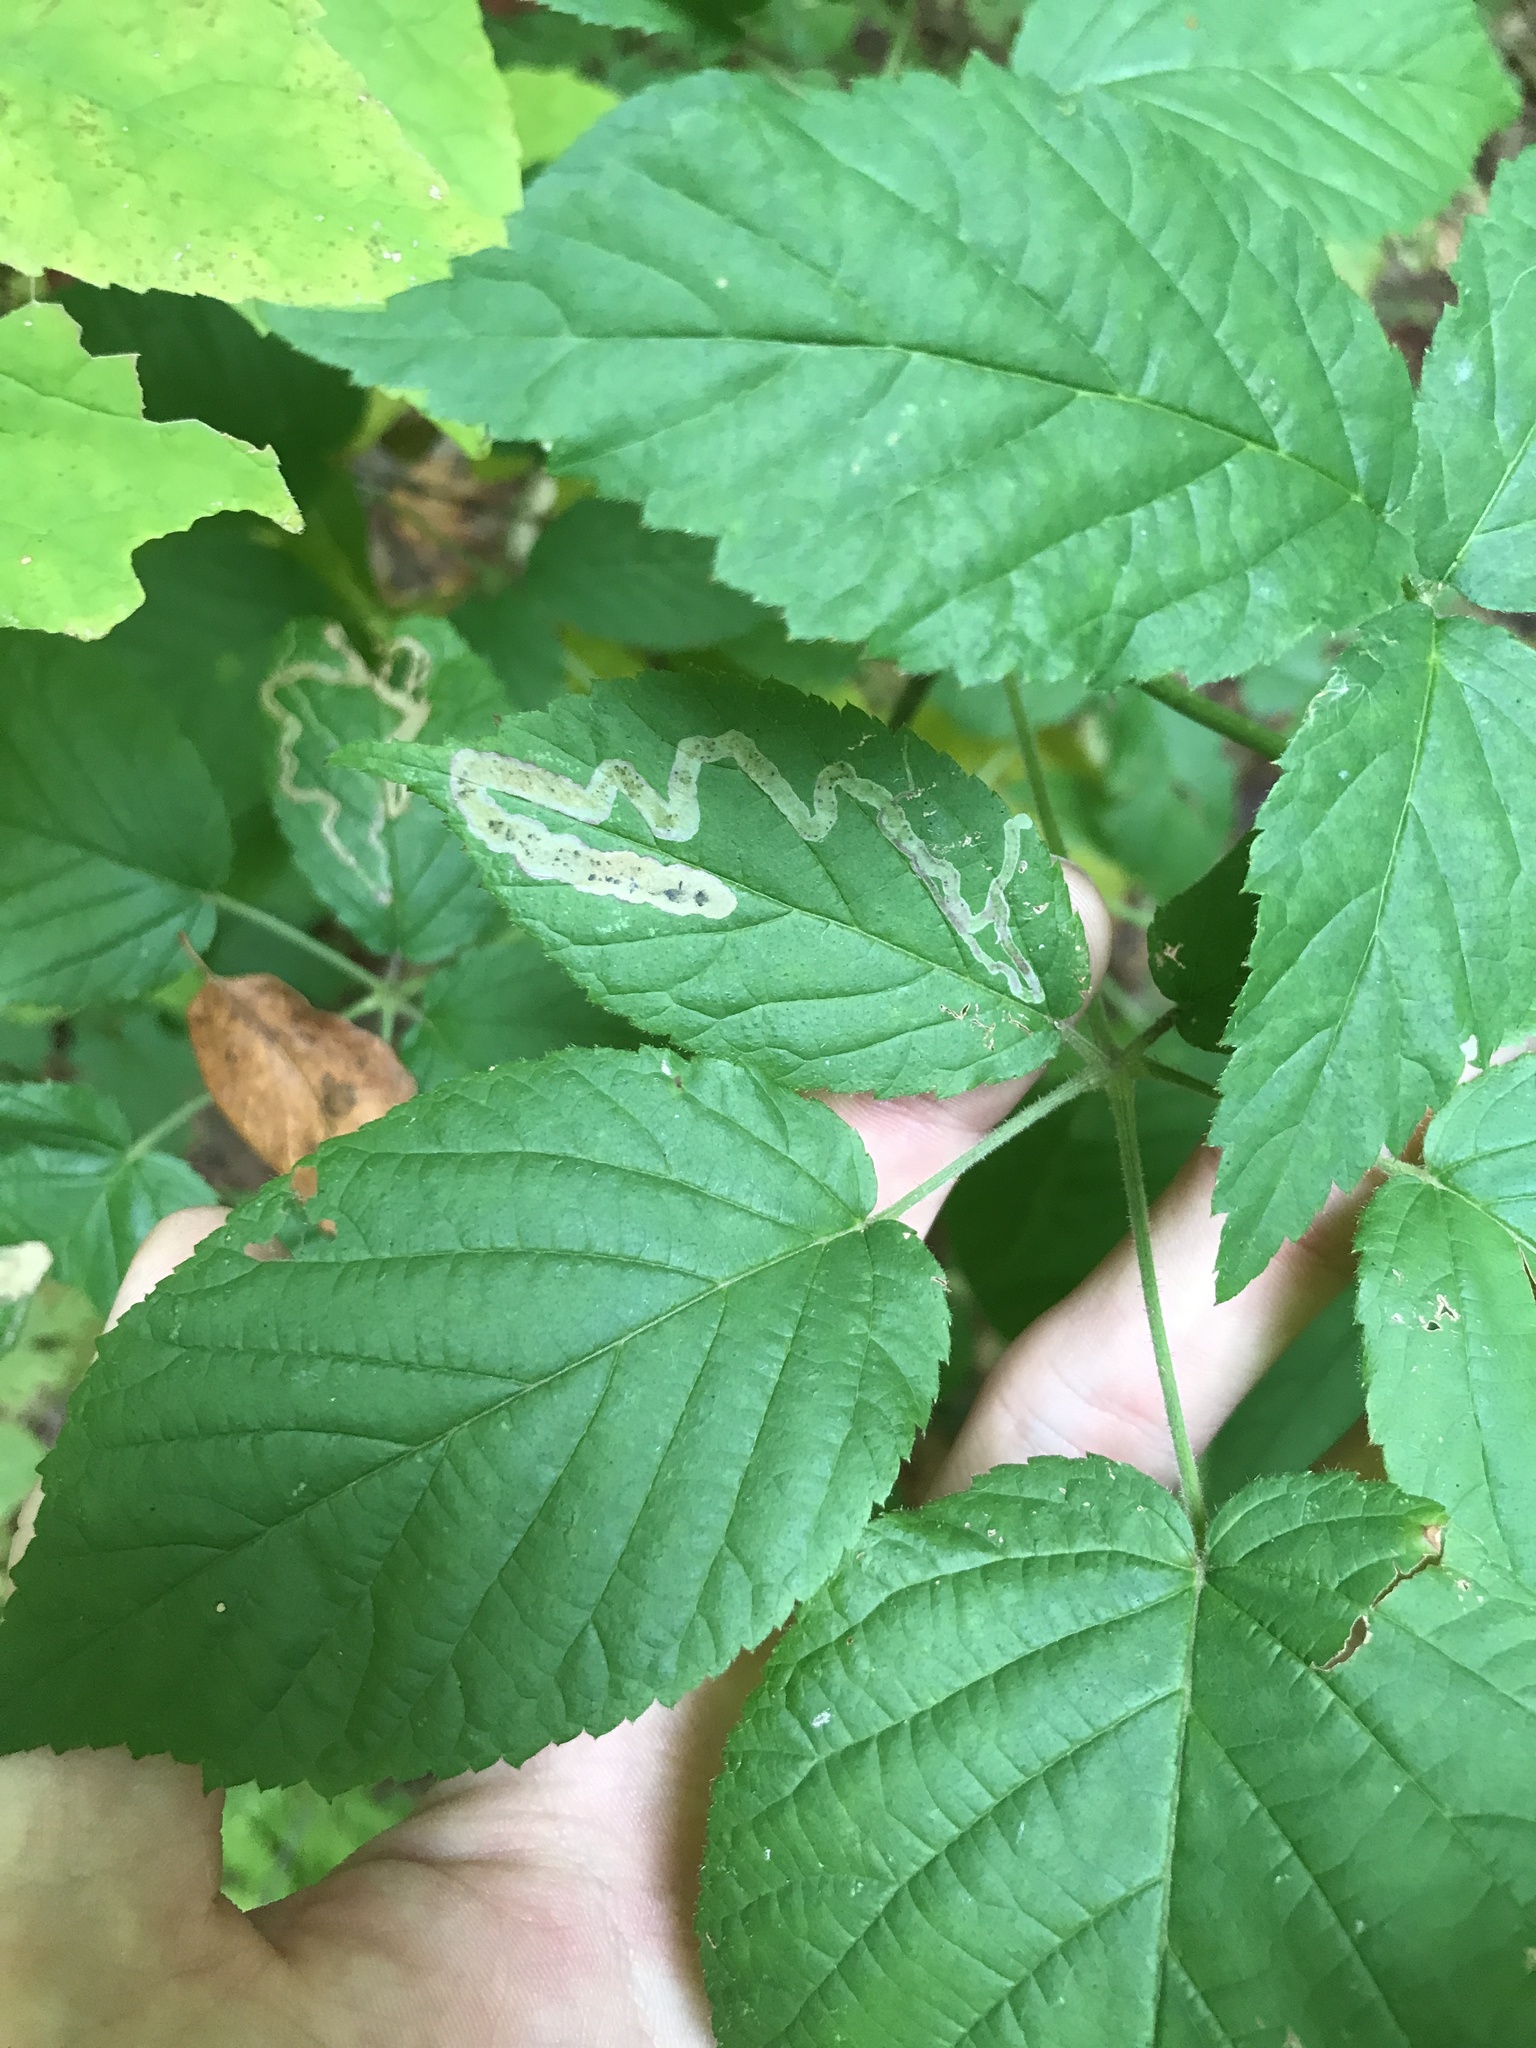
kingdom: Animalia
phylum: Arthropoda
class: Insecta
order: Diptera
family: Agromyzidae
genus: Agromyza
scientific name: Agromyza vockerothi
